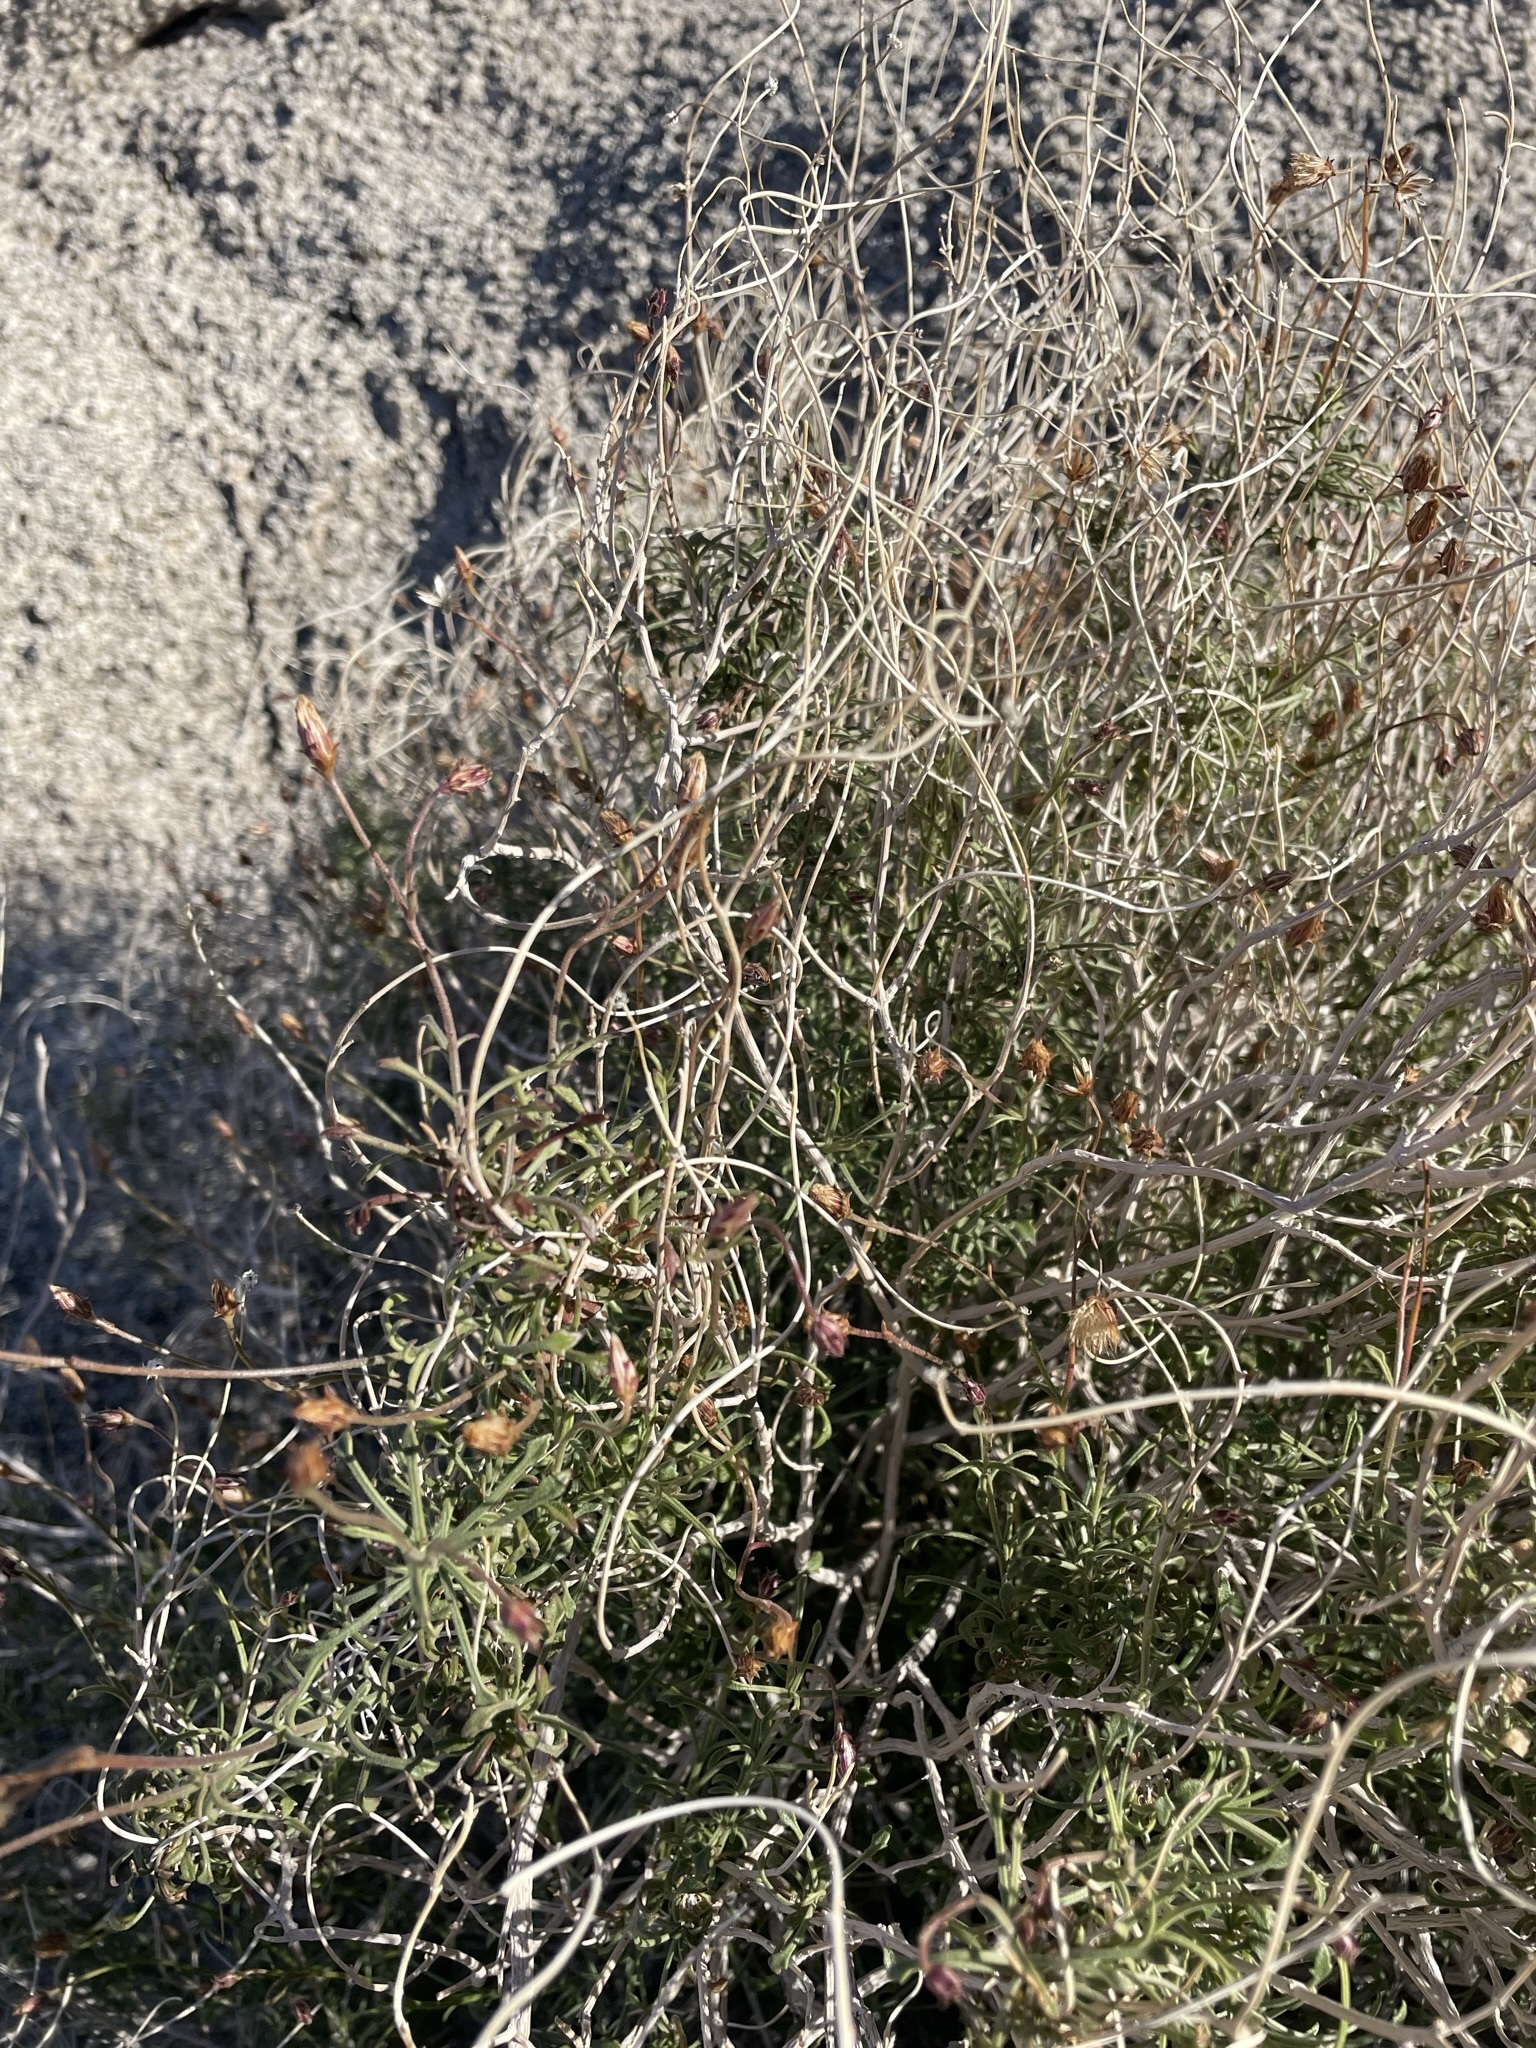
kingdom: Plantae
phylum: Tracheophyta
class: Magnoliopsida
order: Asterales
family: Asteraceae
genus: Pleurocoronis
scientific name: Pleurocoronis pluriseta
